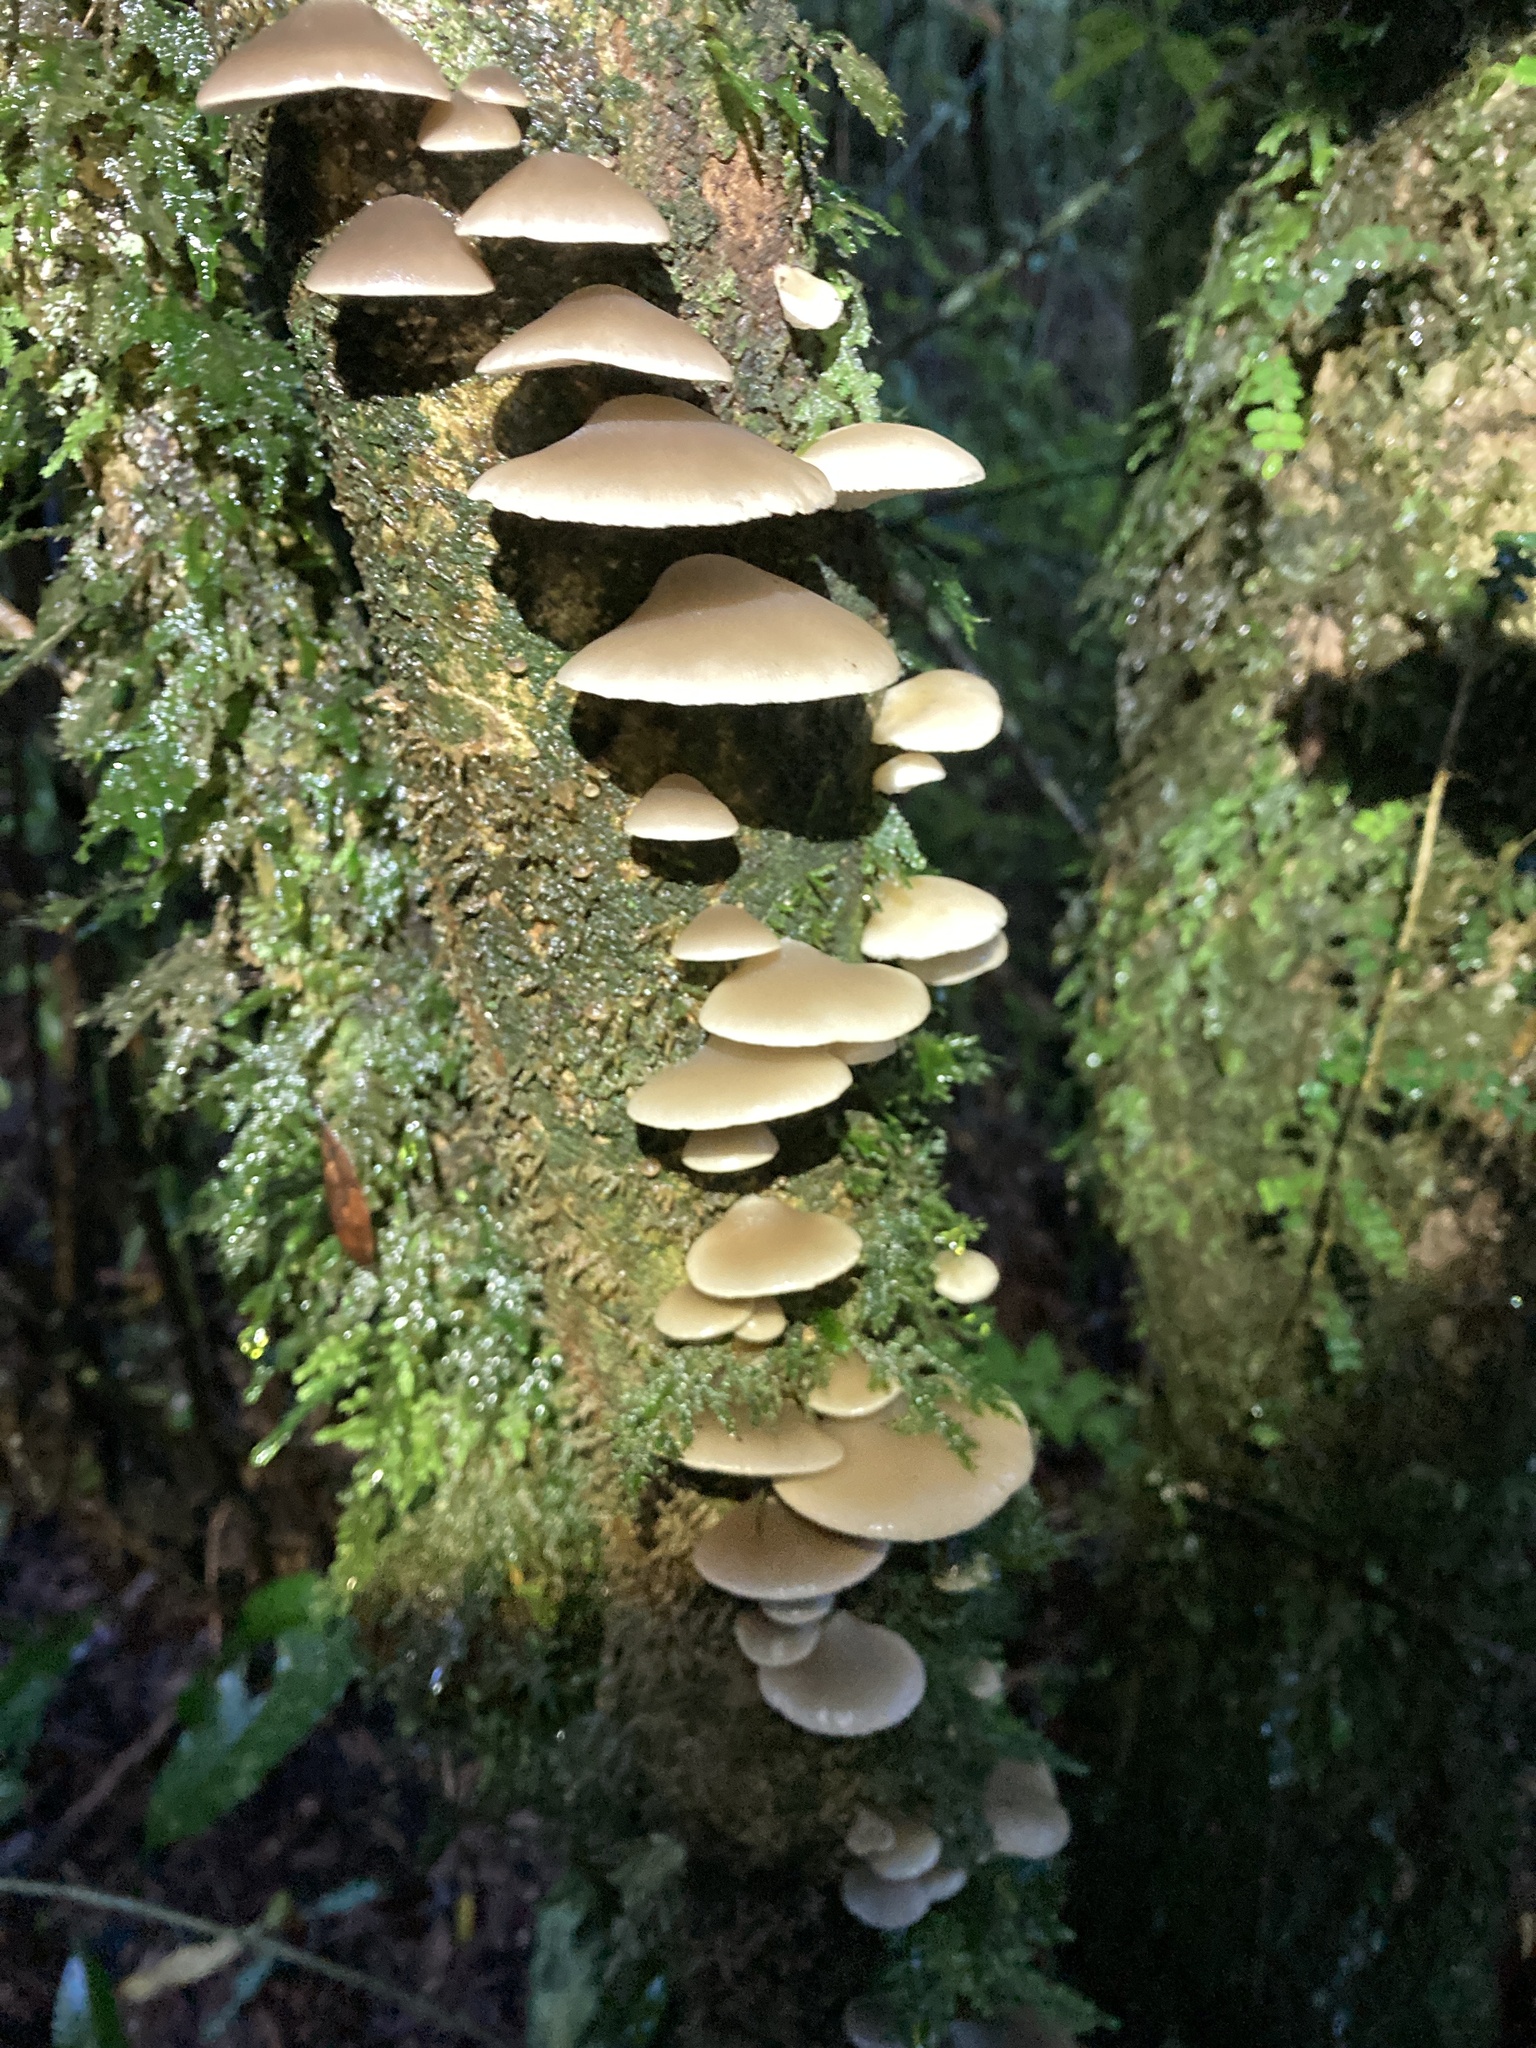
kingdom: Fungi
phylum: Basidiomycota
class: Agaricomycetes
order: Agaricales
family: Tricholomataceae
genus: Conchomyces
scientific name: Conchomyces bursiformis
